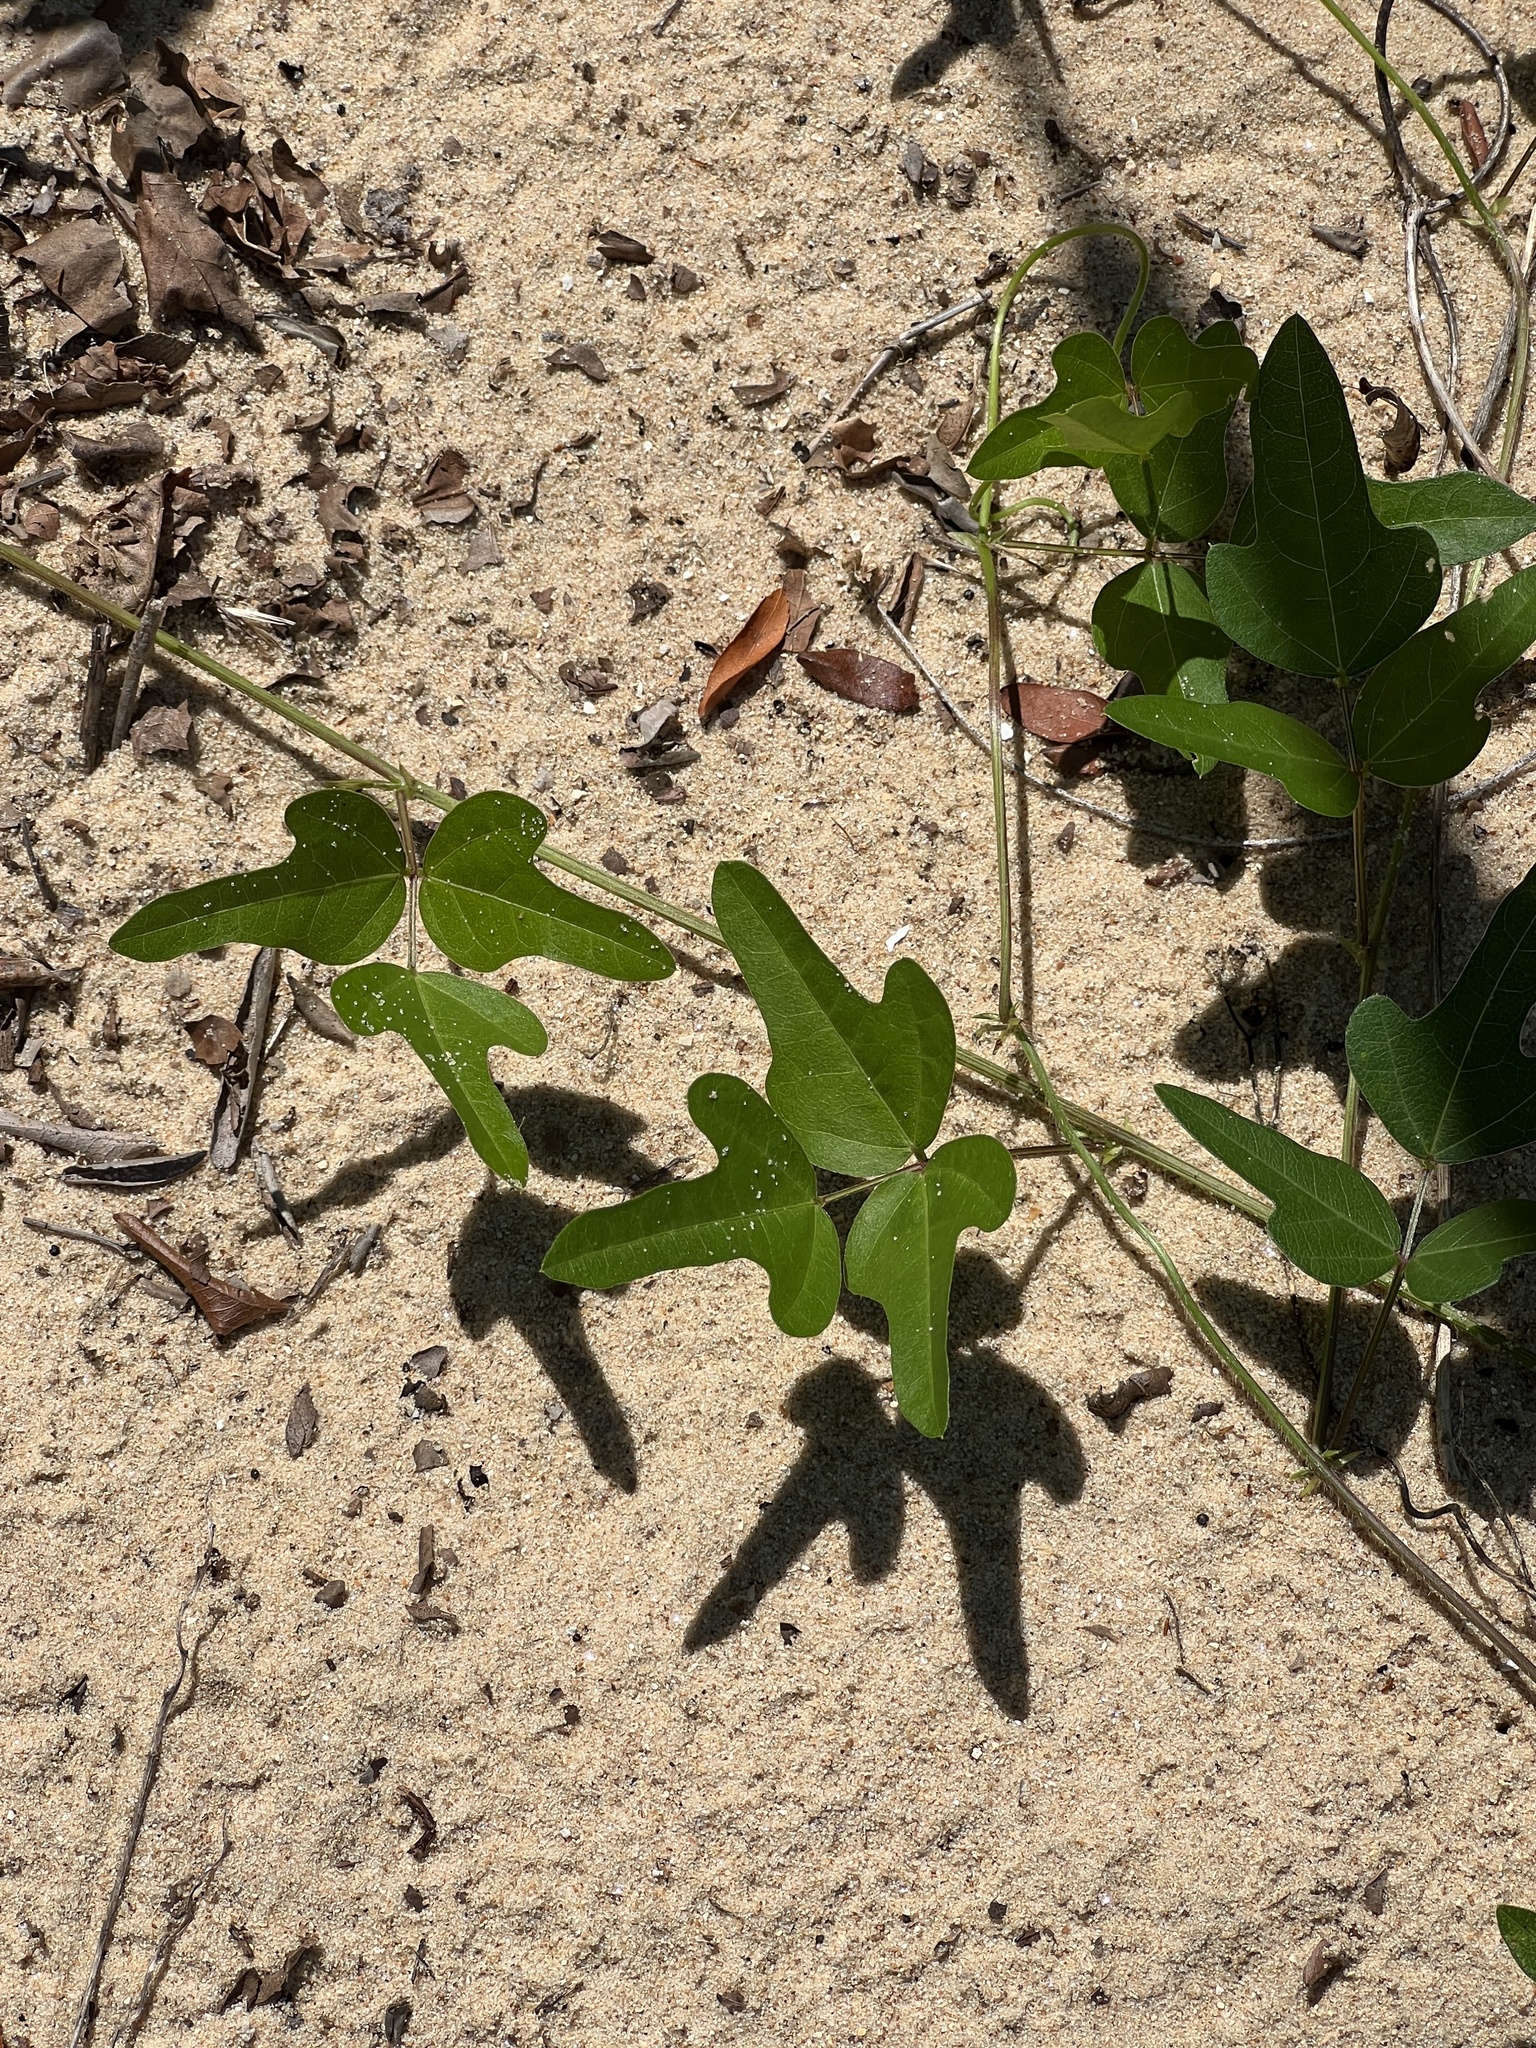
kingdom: Plantae
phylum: Tracheophyta
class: Magnoliopsida
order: Fabales
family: Fabaceae
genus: Strophostyles
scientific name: Strophostyles helvola
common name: Trailing wild bean
